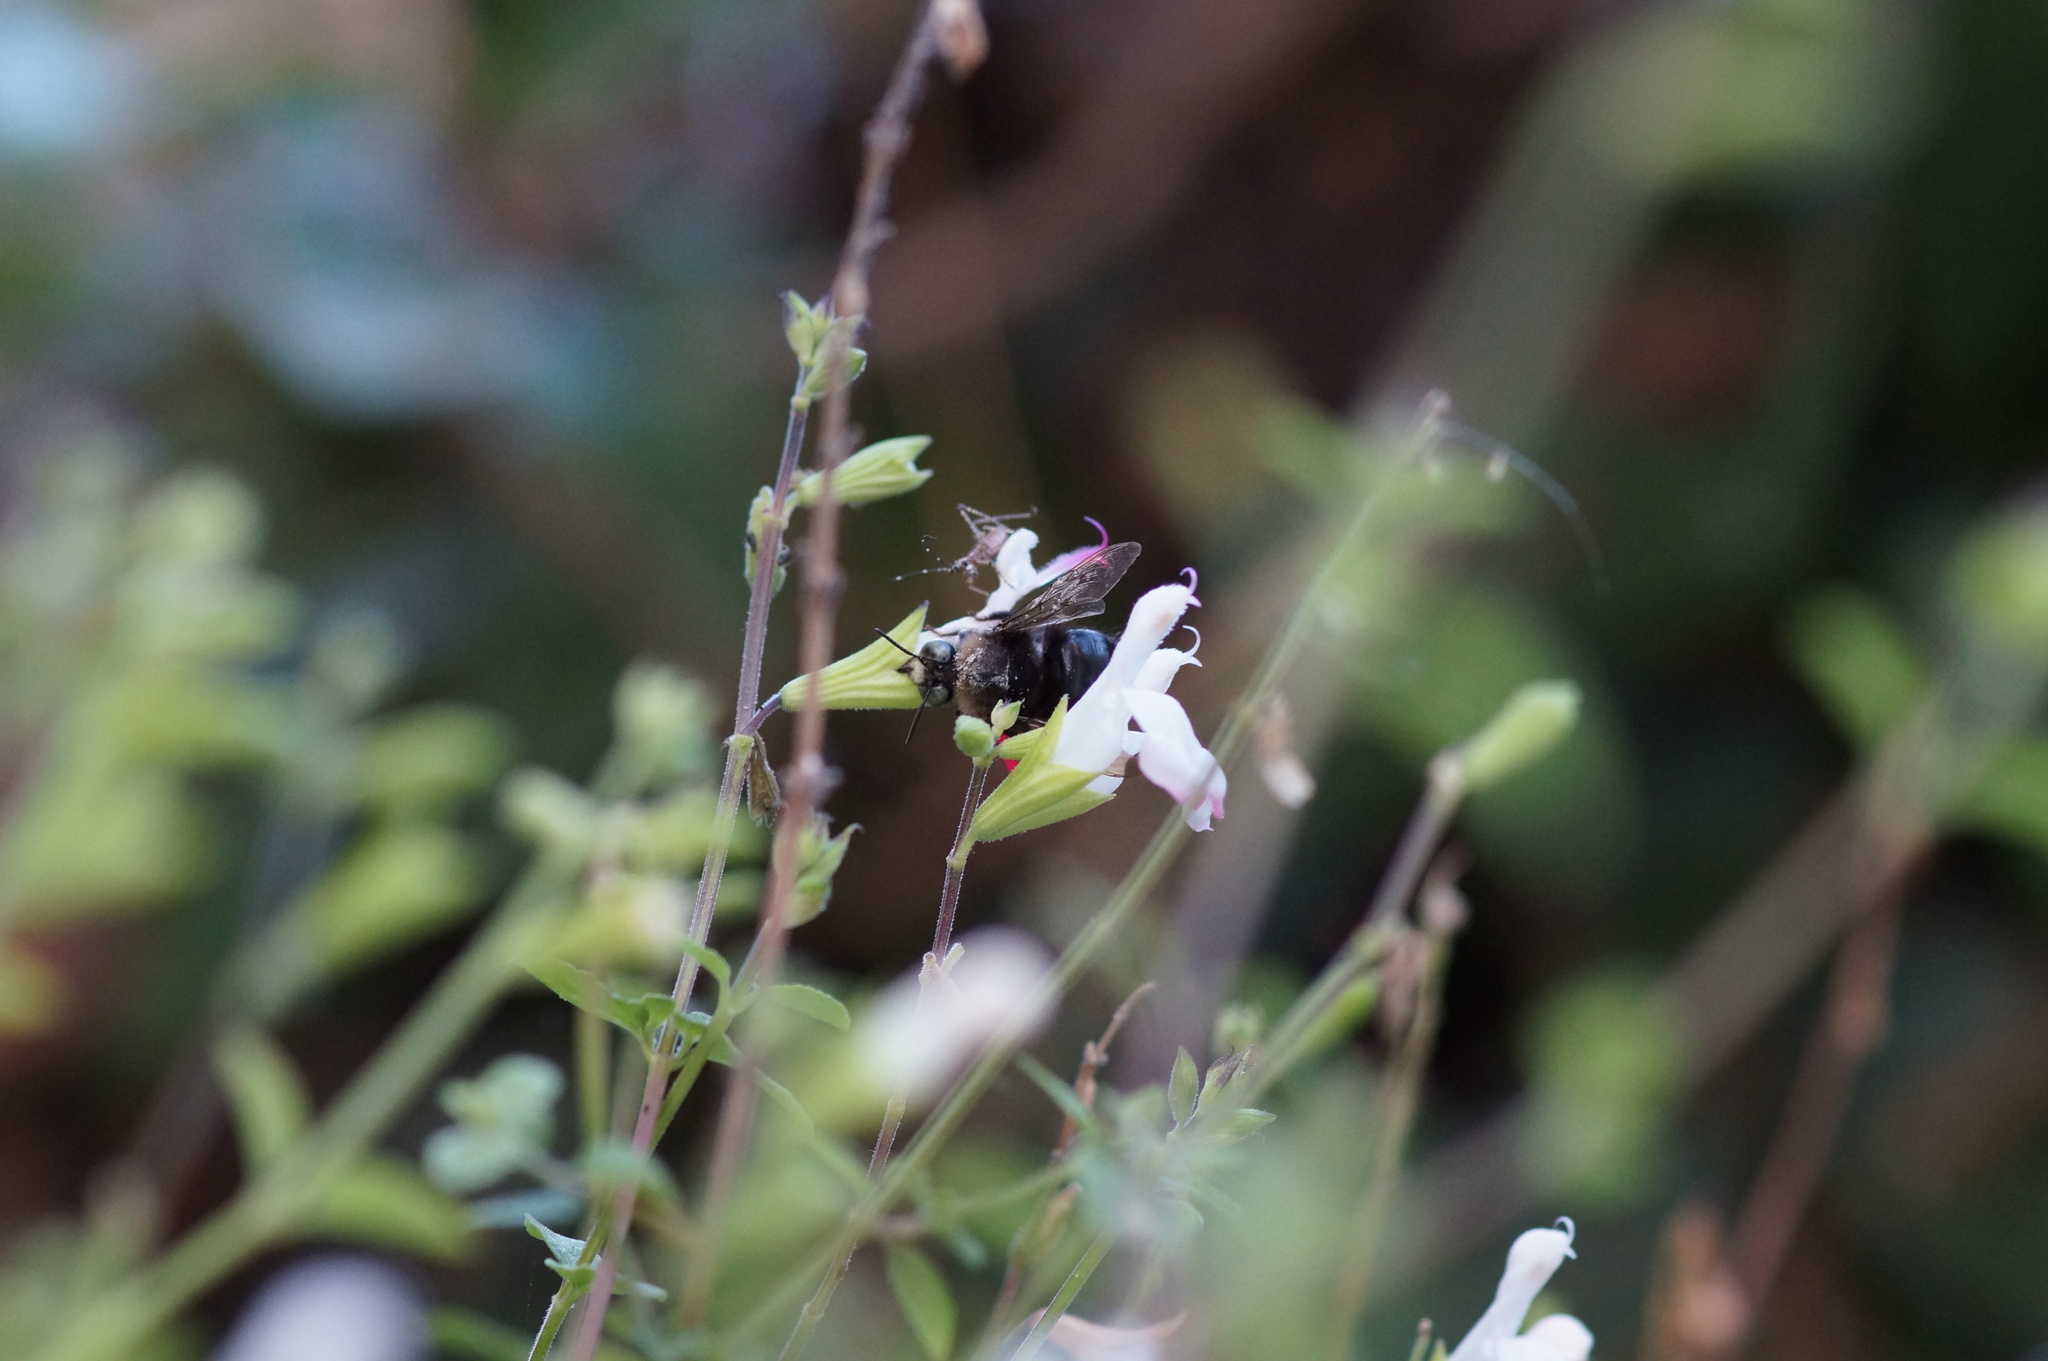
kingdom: Animalia
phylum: Arthropoda
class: Insecta
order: Hymenoptera
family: Apidae
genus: Xylocopa
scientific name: Xylocopa tabaniformis
